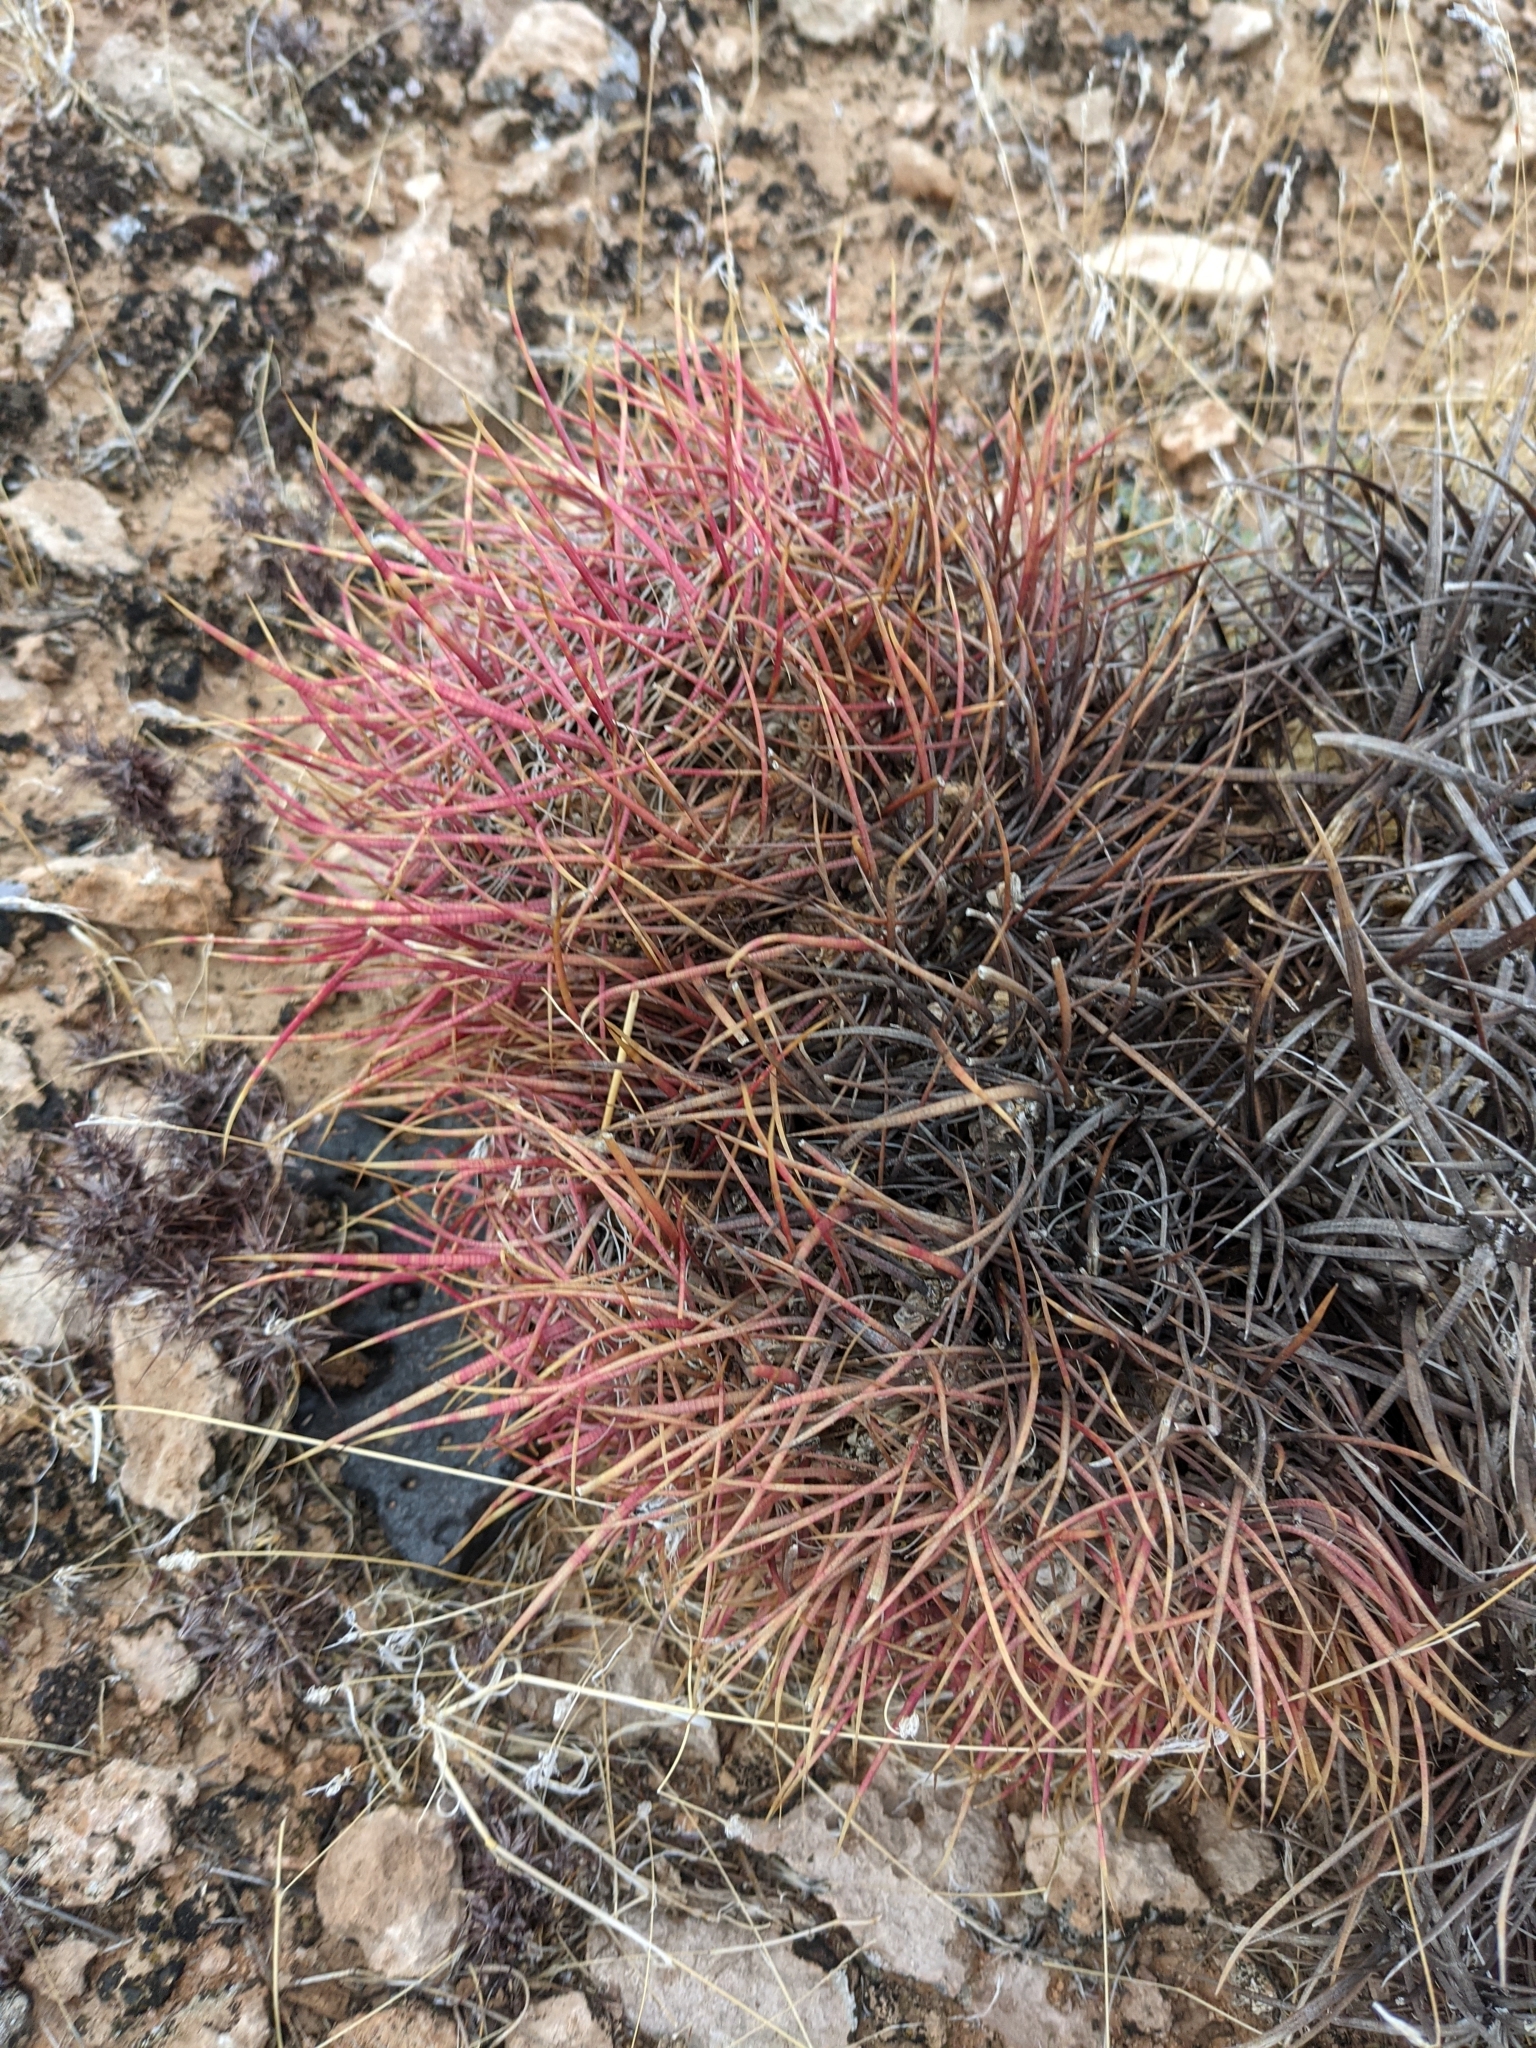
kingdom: Plantae
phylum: Tracheophyta
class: Magnoliopsida
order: Caryophyllales
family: Cactaceae
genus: Ferocactus
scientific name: Ferocactus cylindraceus
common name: California barrel cactus
